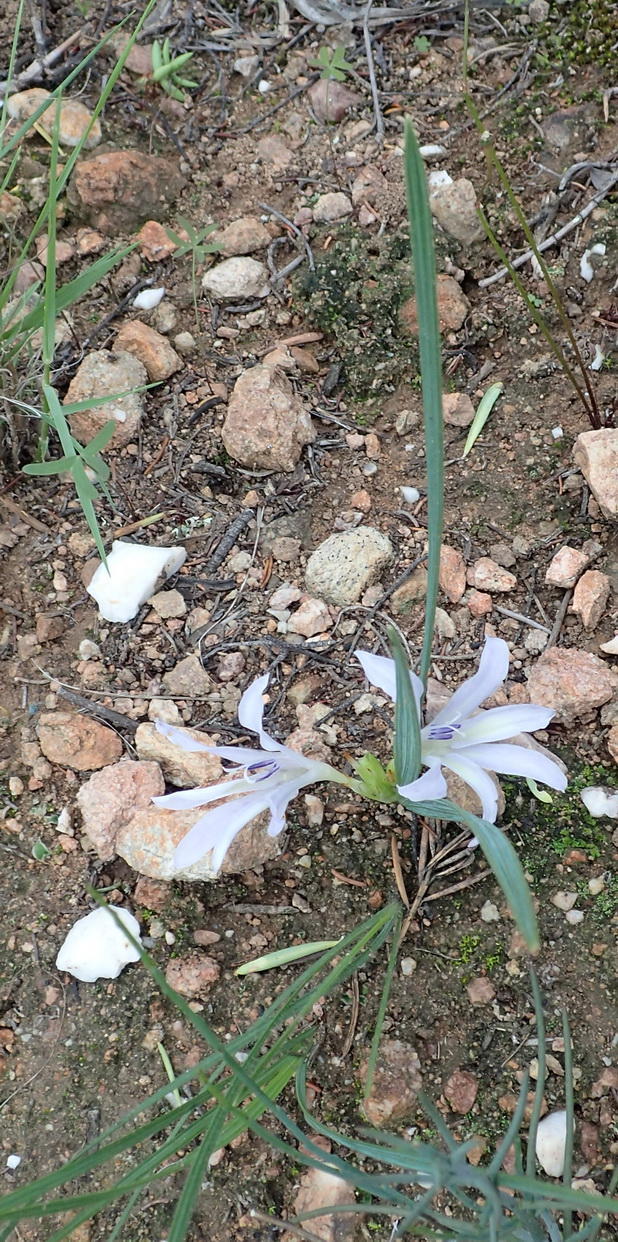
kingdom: Plantae
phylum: Tracheophyta
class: Liliopsida
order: Asparagales
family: Iridaceae
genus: Babiana
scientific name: Babiana karooica
